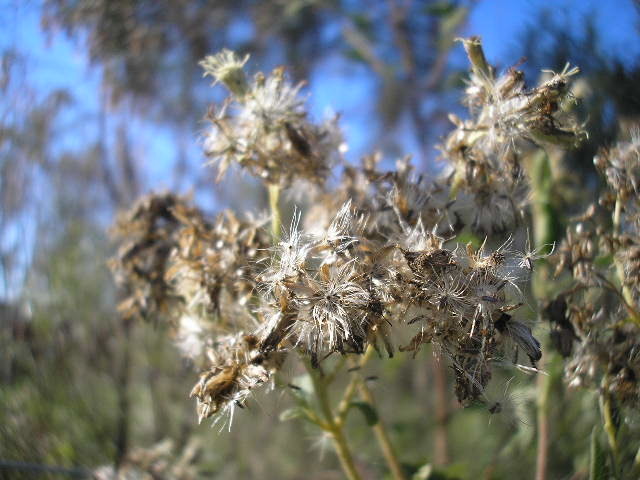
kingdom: Plantae
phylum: Tracheophyta
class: Magnoliopsida
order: Asterales
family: Asteraceae
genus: Austroeupatorium
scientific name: Austroeupatorium inulifolium
